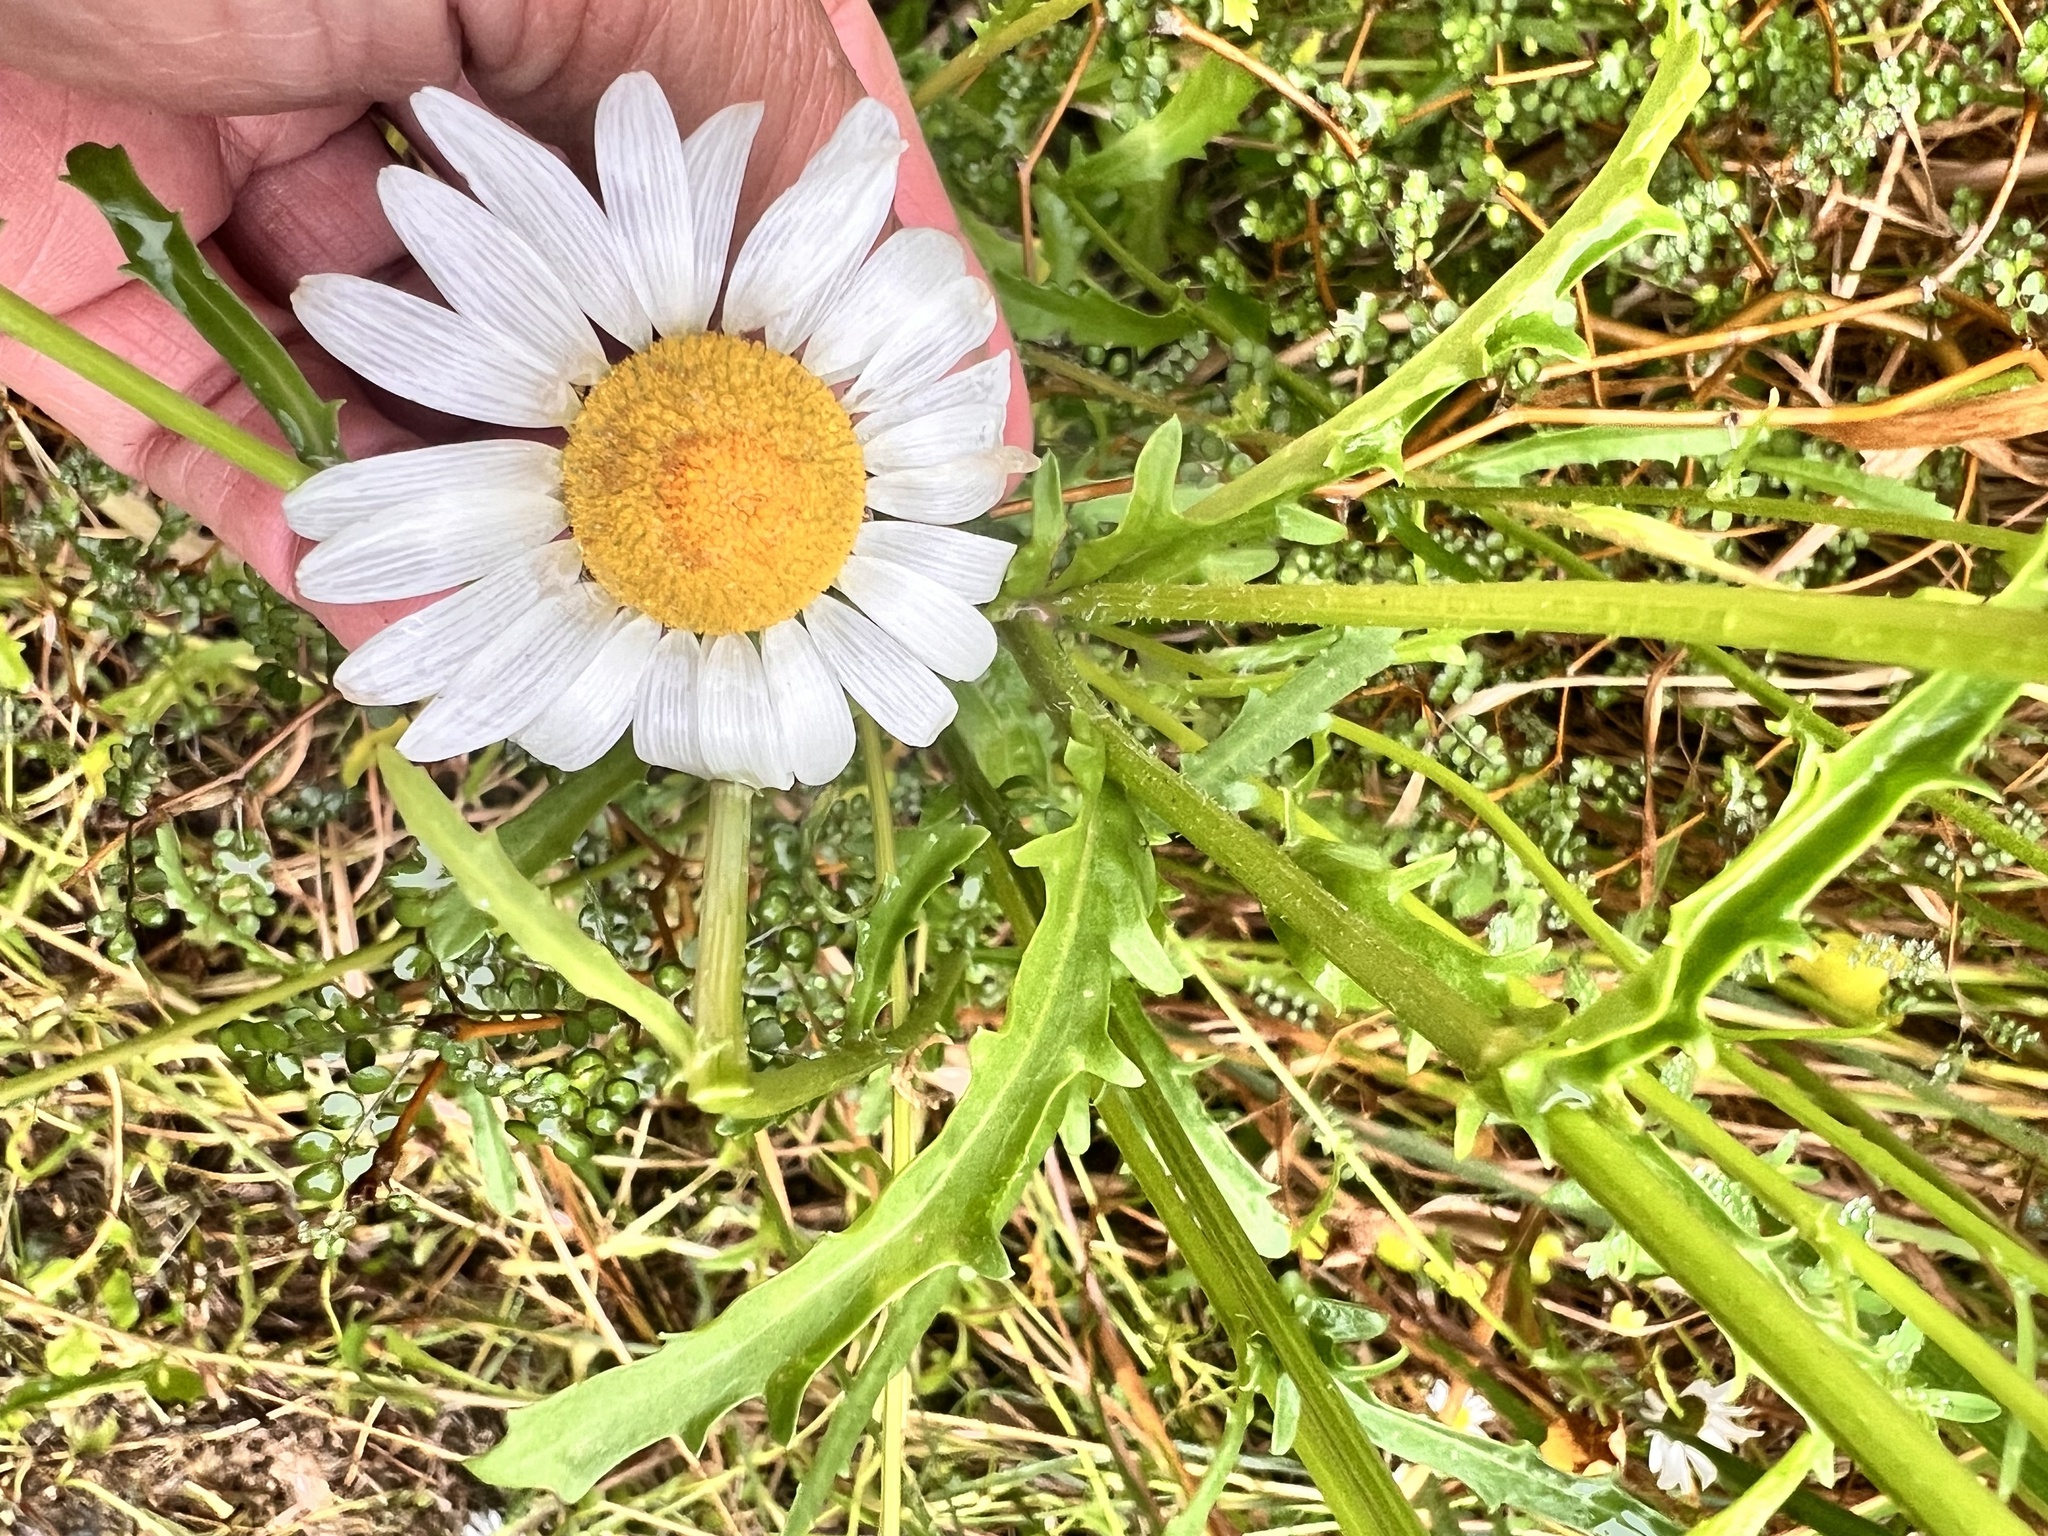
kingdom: Plantae
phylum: Tracheophyta
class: Magnoliopsida
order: Asterales
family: Asteraceae
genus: Leucanthemum
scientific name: Leucanthemum vulgare
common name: Oxeye daisy
